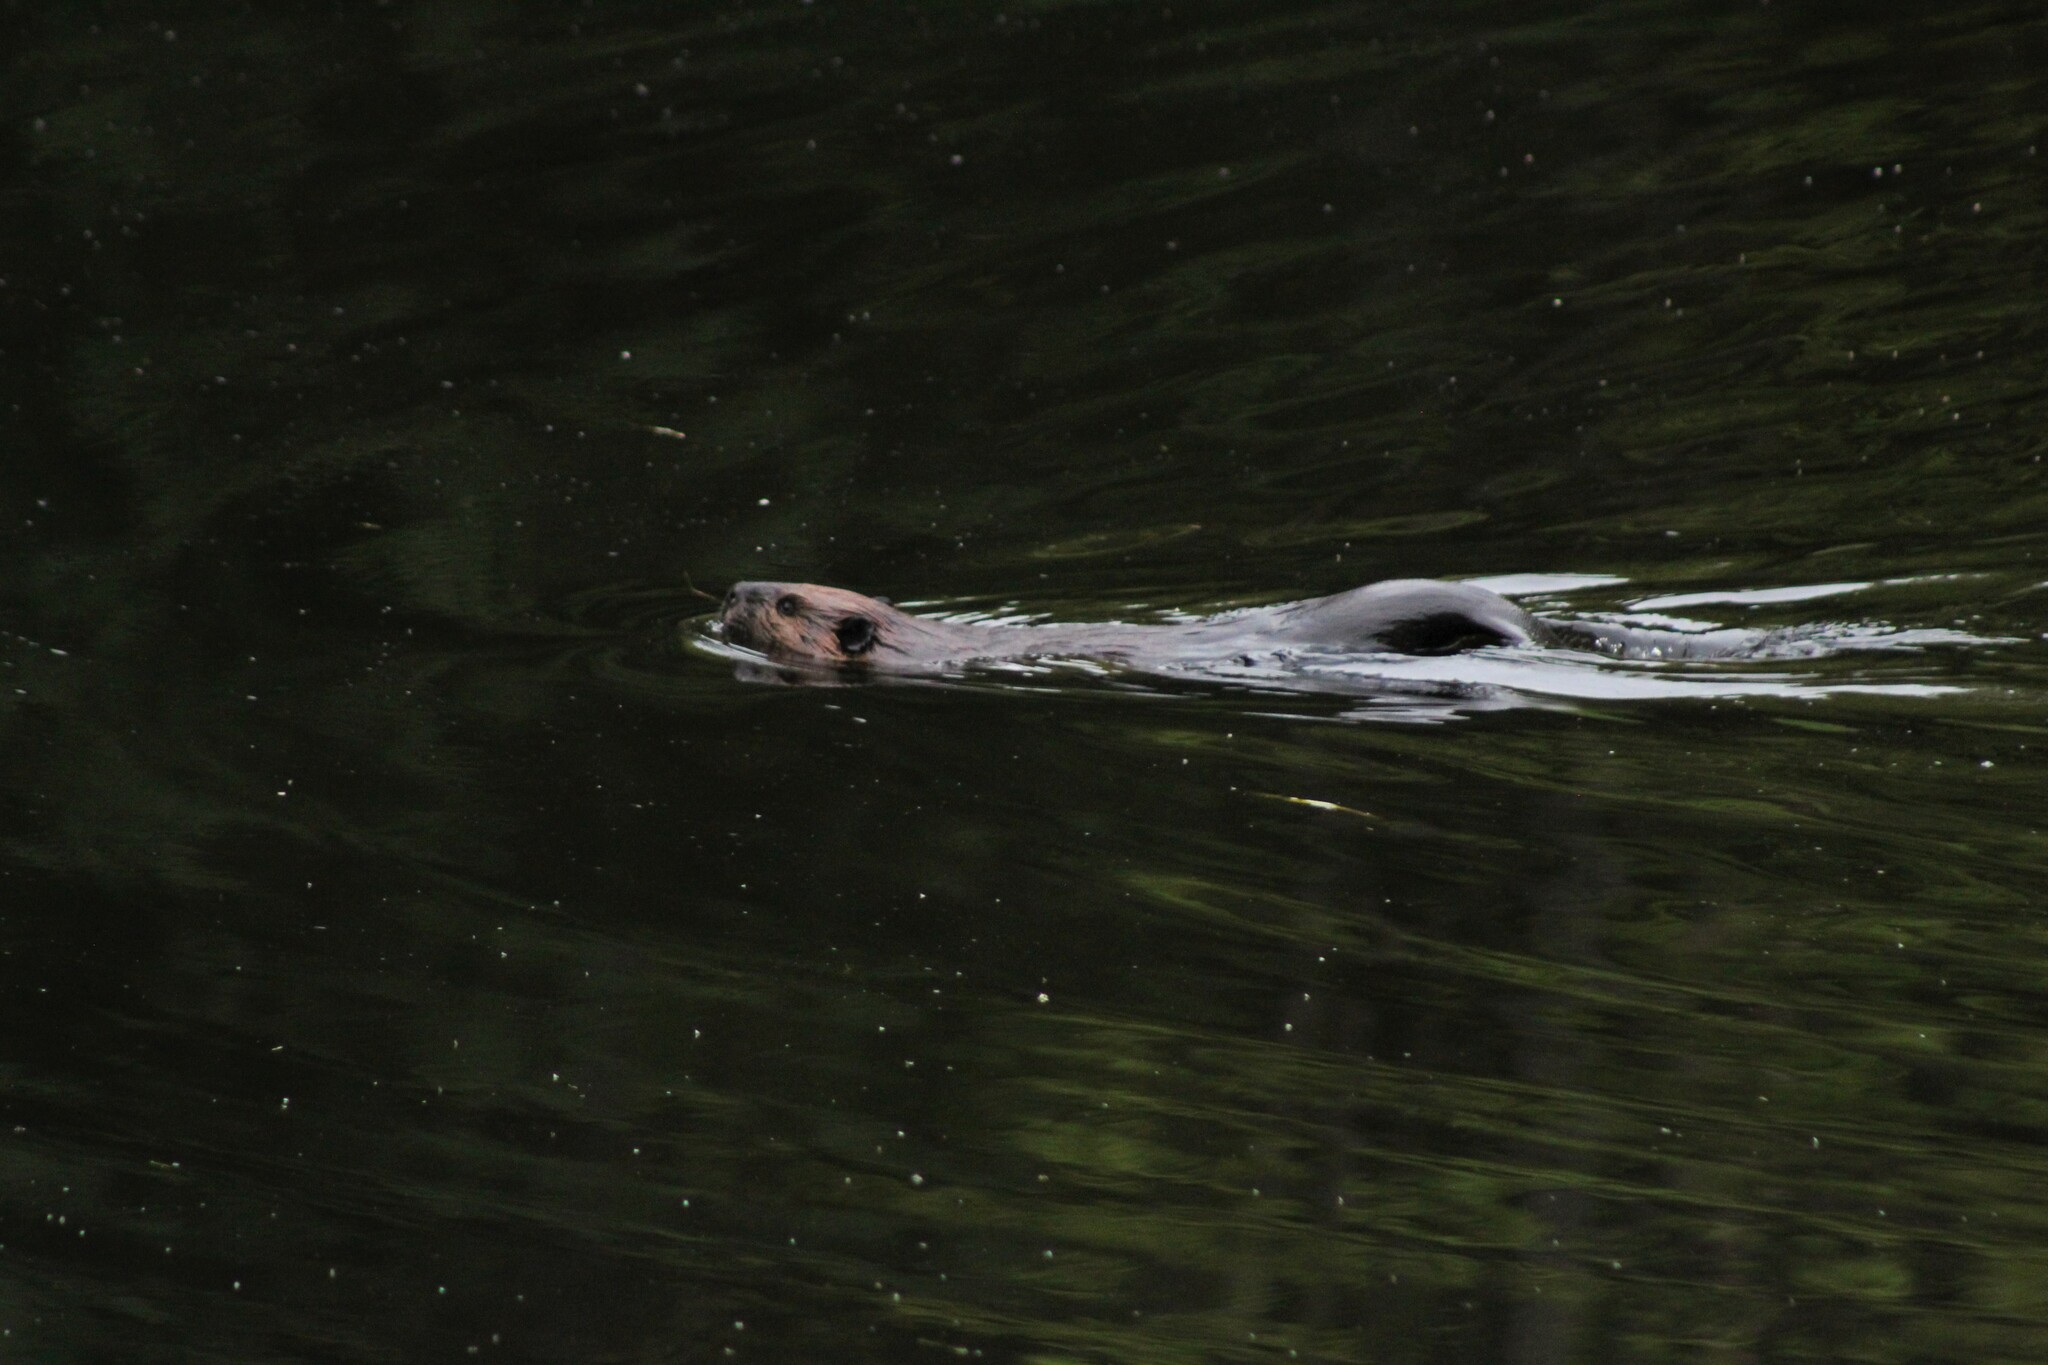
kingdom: Animalia
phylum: Chordata
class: Mammalia
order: Rodentia
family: Castoridae
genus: Castor
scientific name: Castor canadensis
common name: American beaver
